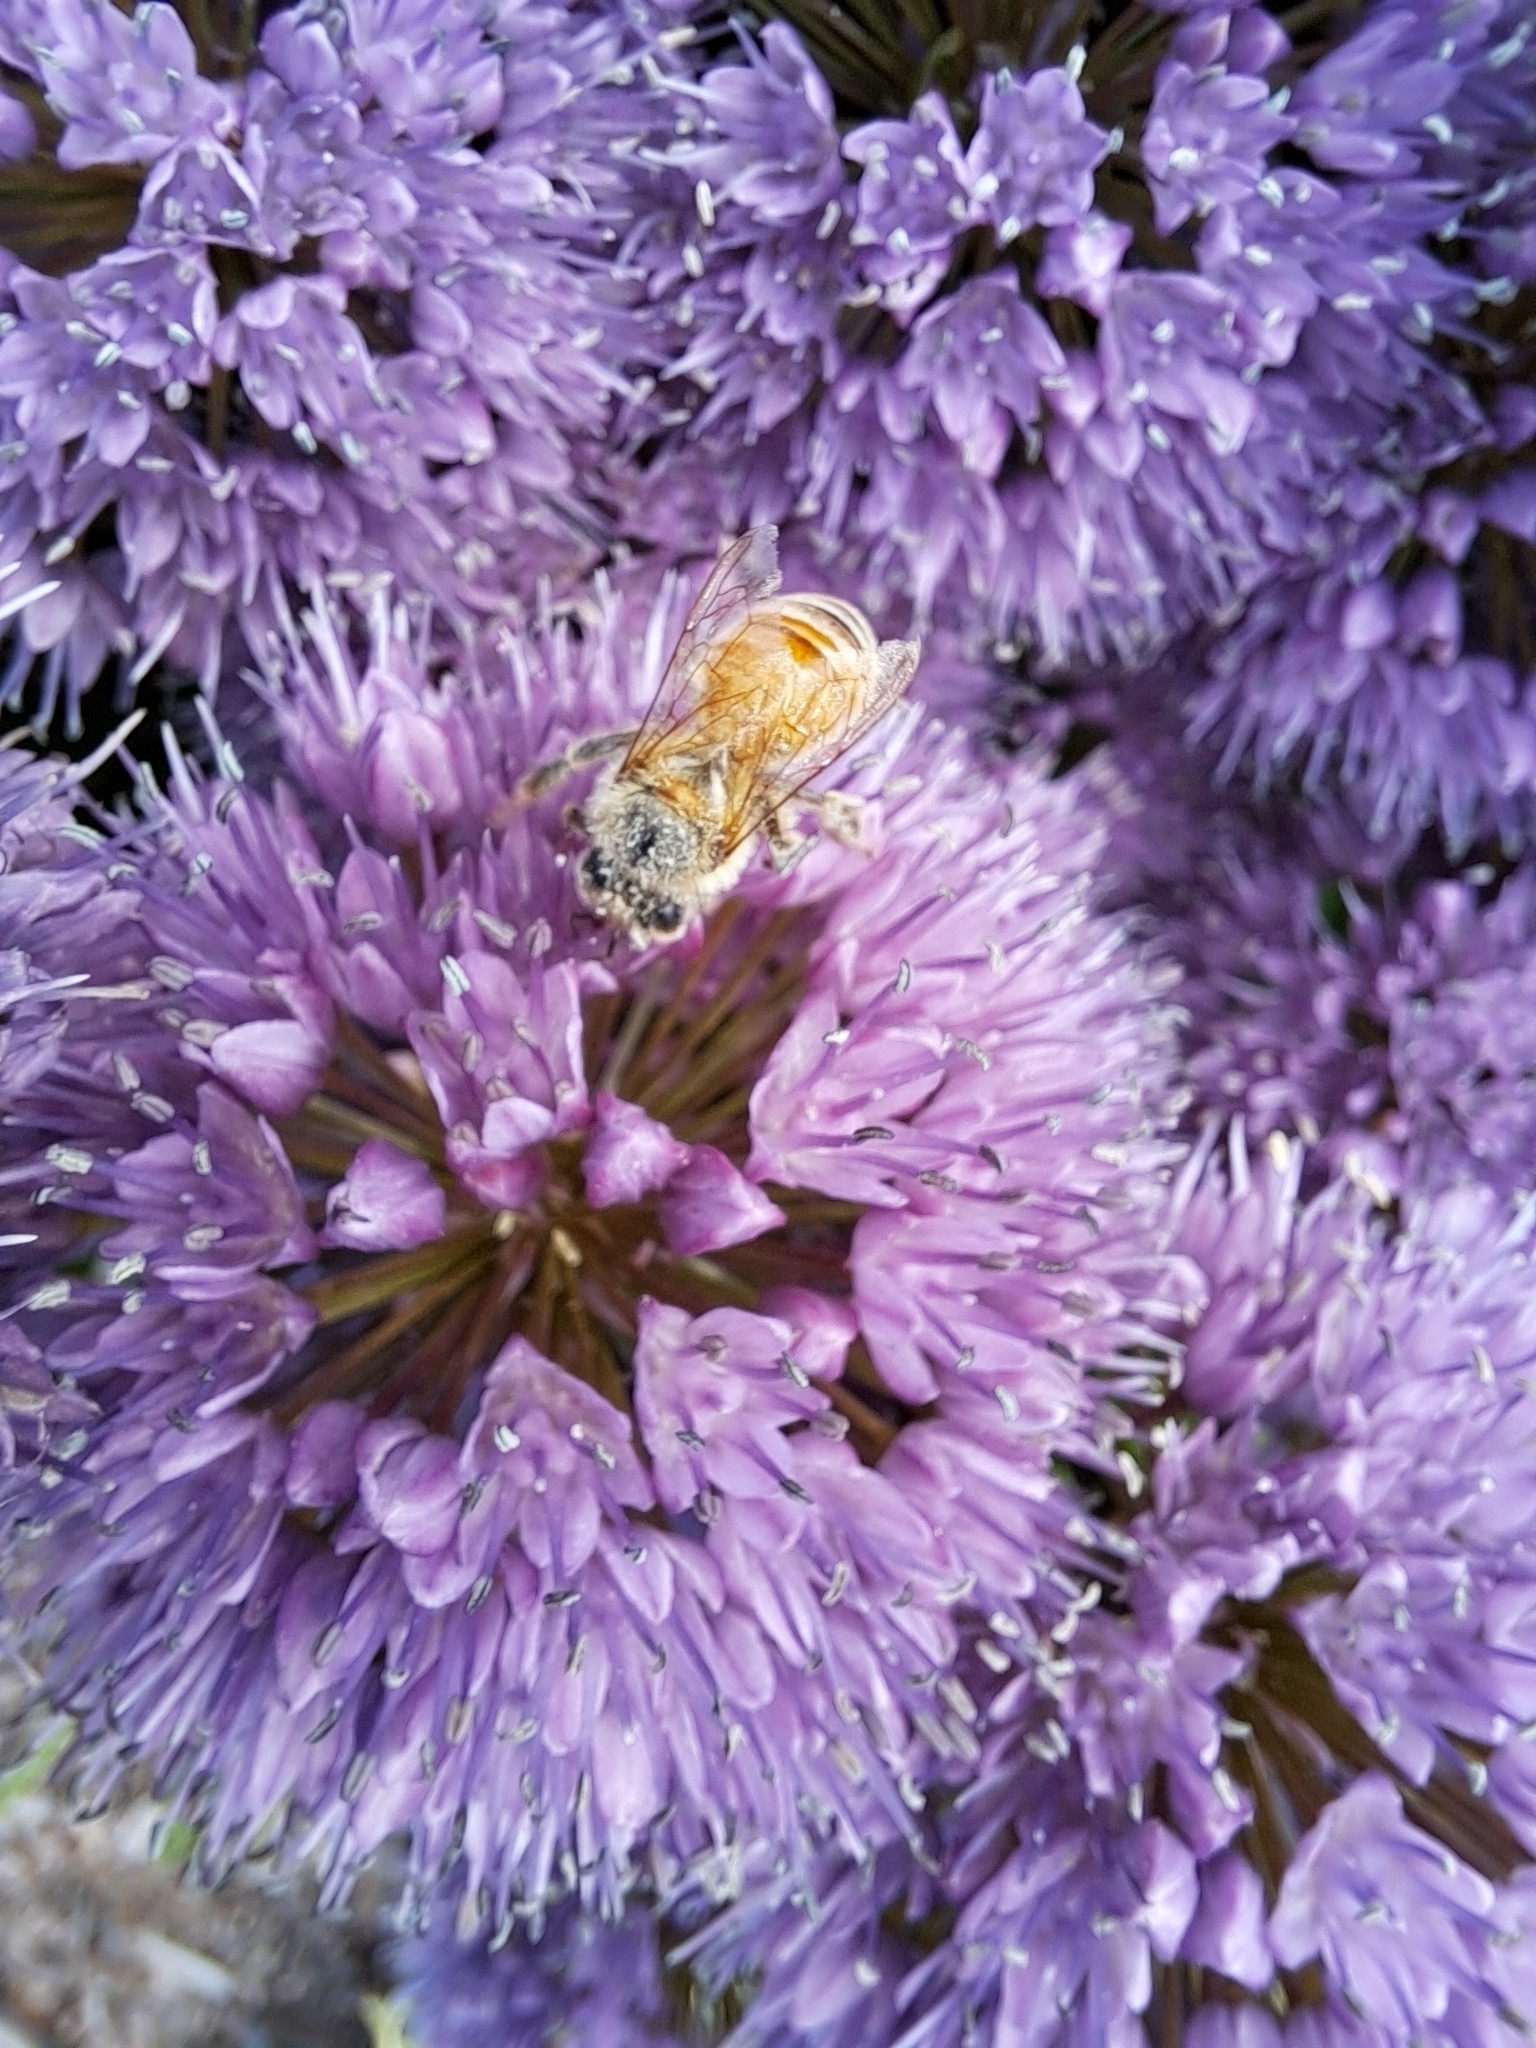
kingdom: Animalia
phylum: Arthropoda
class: Insecta
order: Hymenoptera
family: Apidae
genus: Apis
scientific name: Apis mellifera
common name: Honey bee
